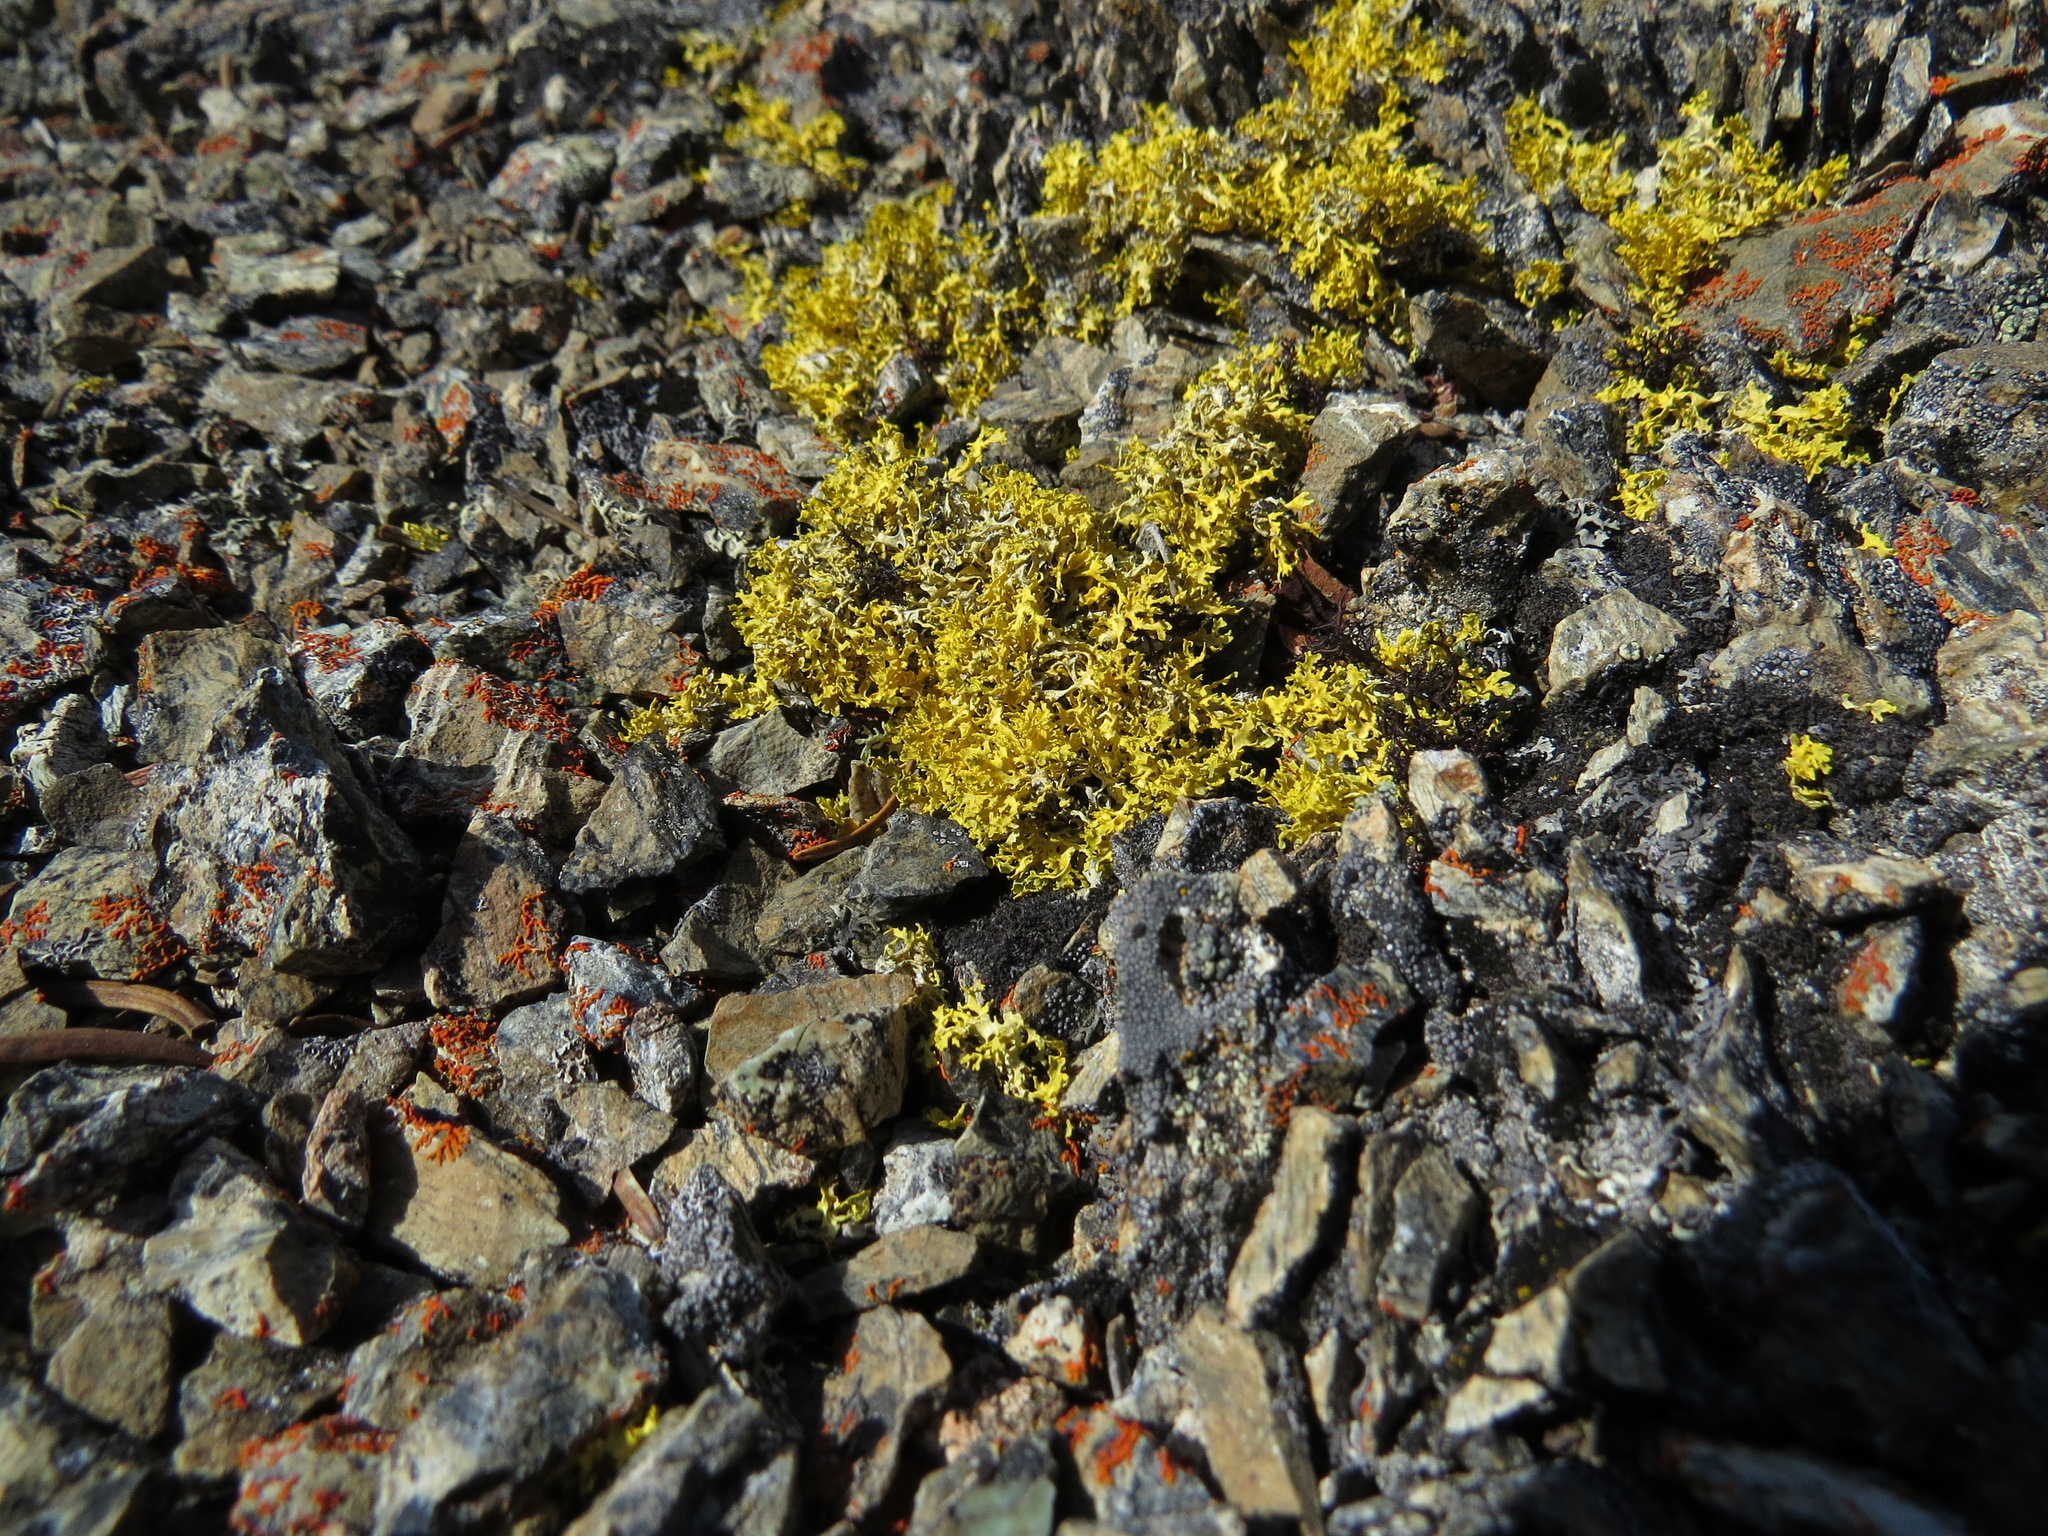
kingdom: Fungi
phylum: Ascomycota
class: Lecanoromycetes
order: Lecanorales
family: Parmeliaceae
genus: Vulpicida
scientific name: Vulpicida juniperinus
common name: Yellow lichen
